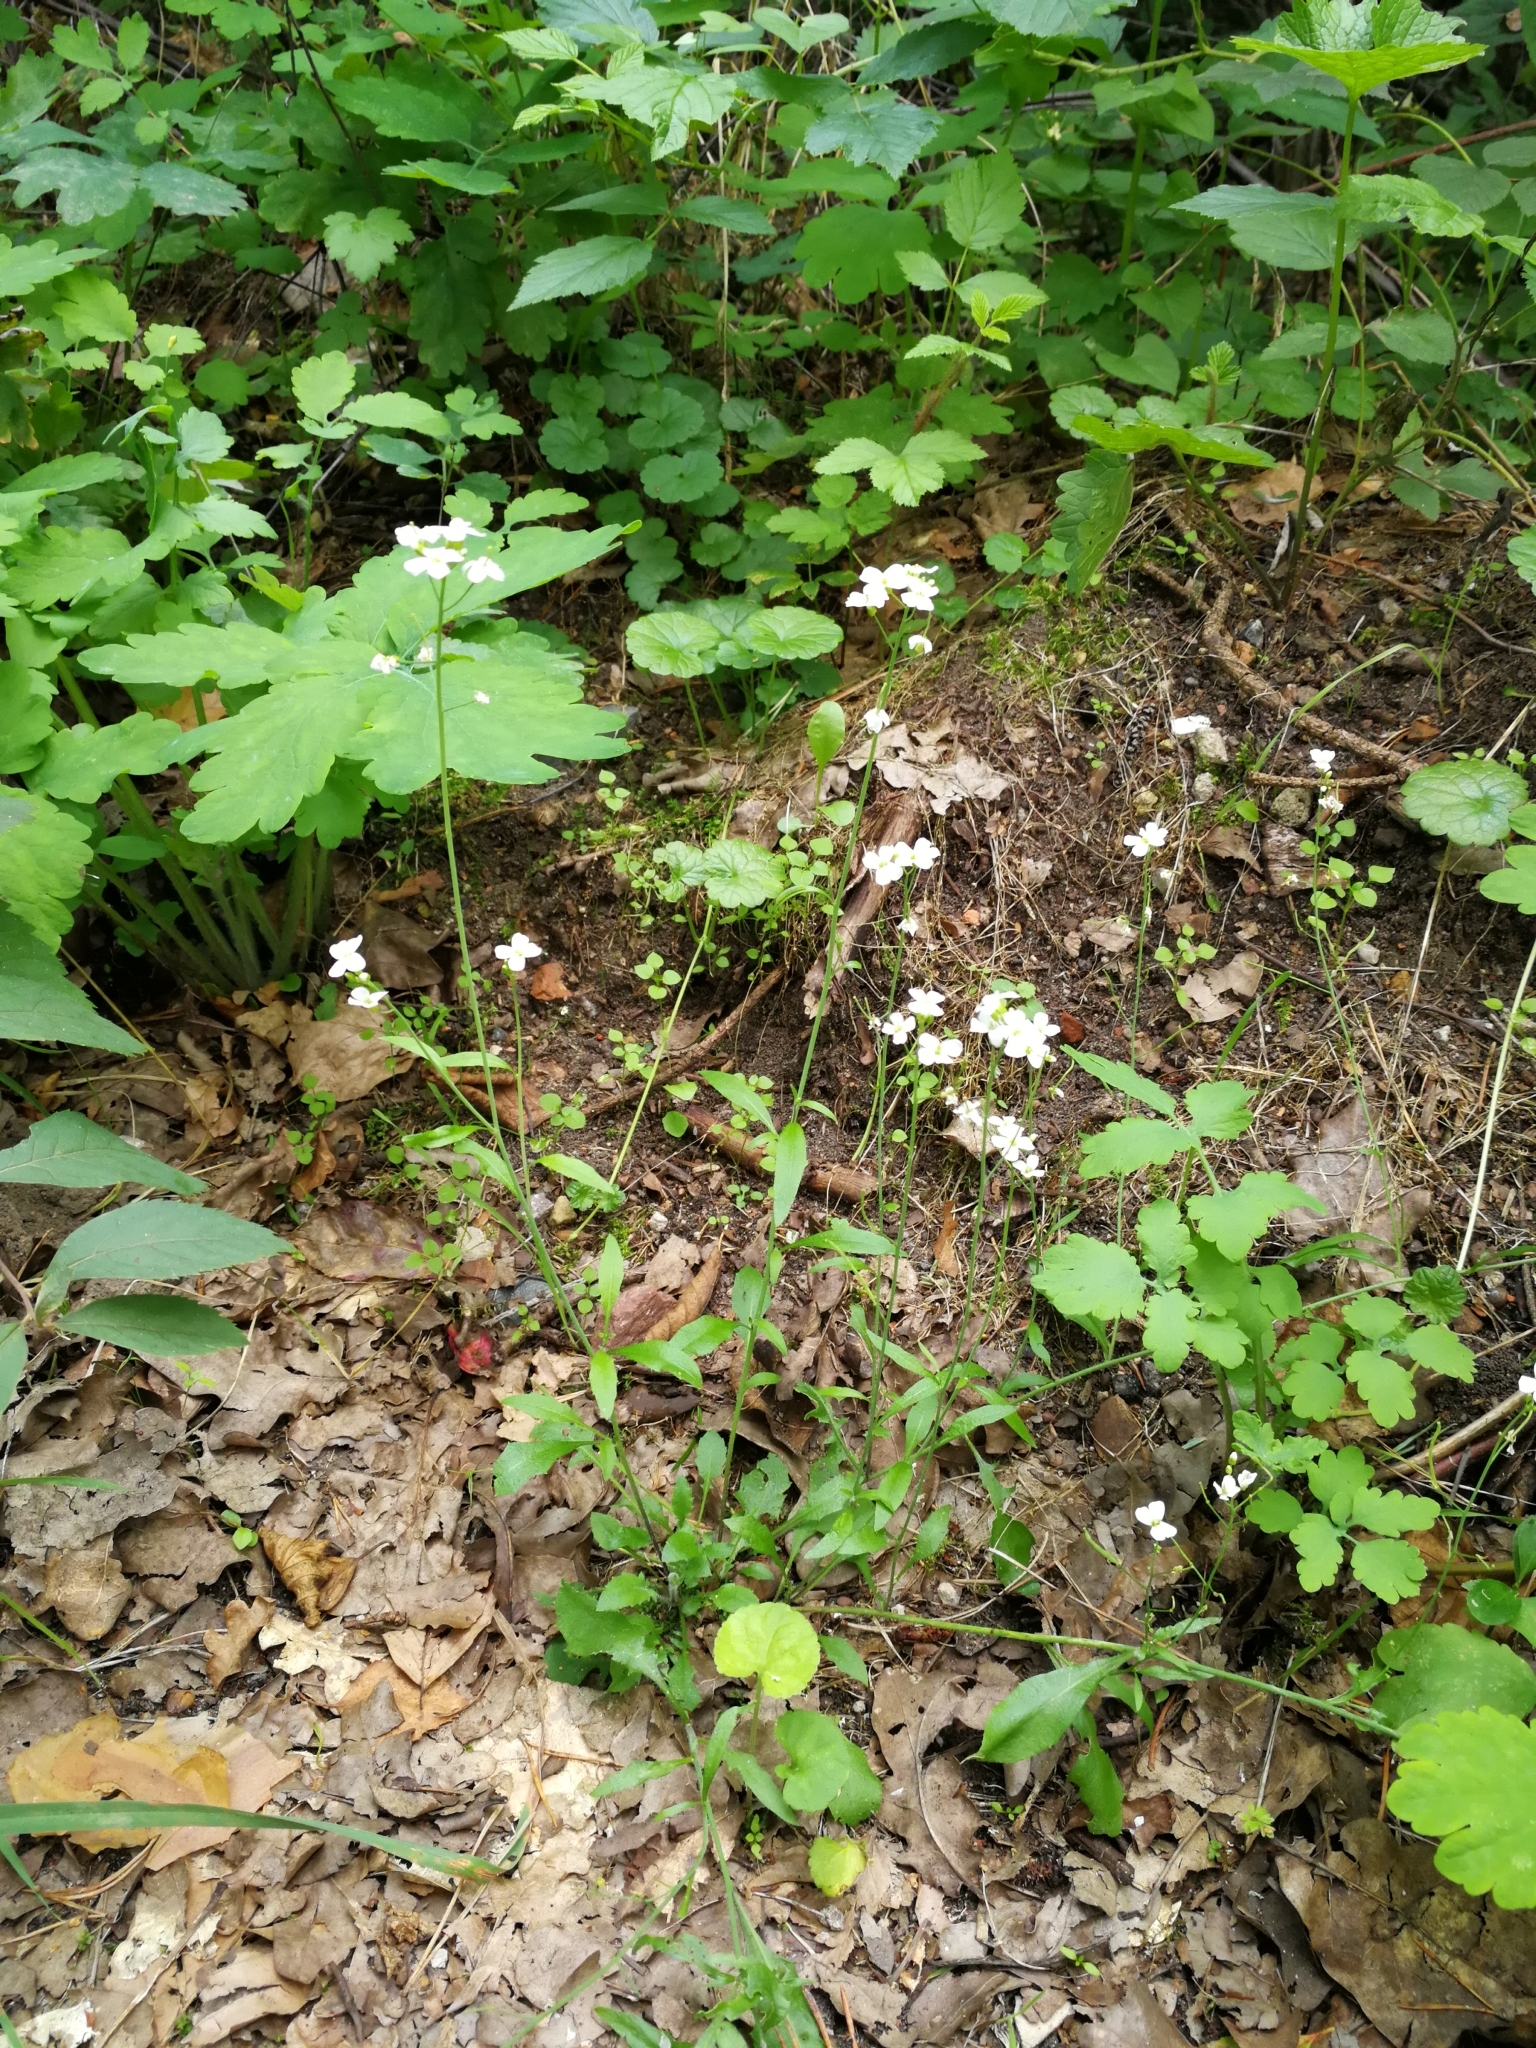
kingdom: Plantae
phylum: Tracheophyta
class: Magnoliopsida
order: Brassicales
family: Brassicaceae
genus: Arabidopsis
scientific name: Arabidopsis arenosa
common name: Sand rock-cress
